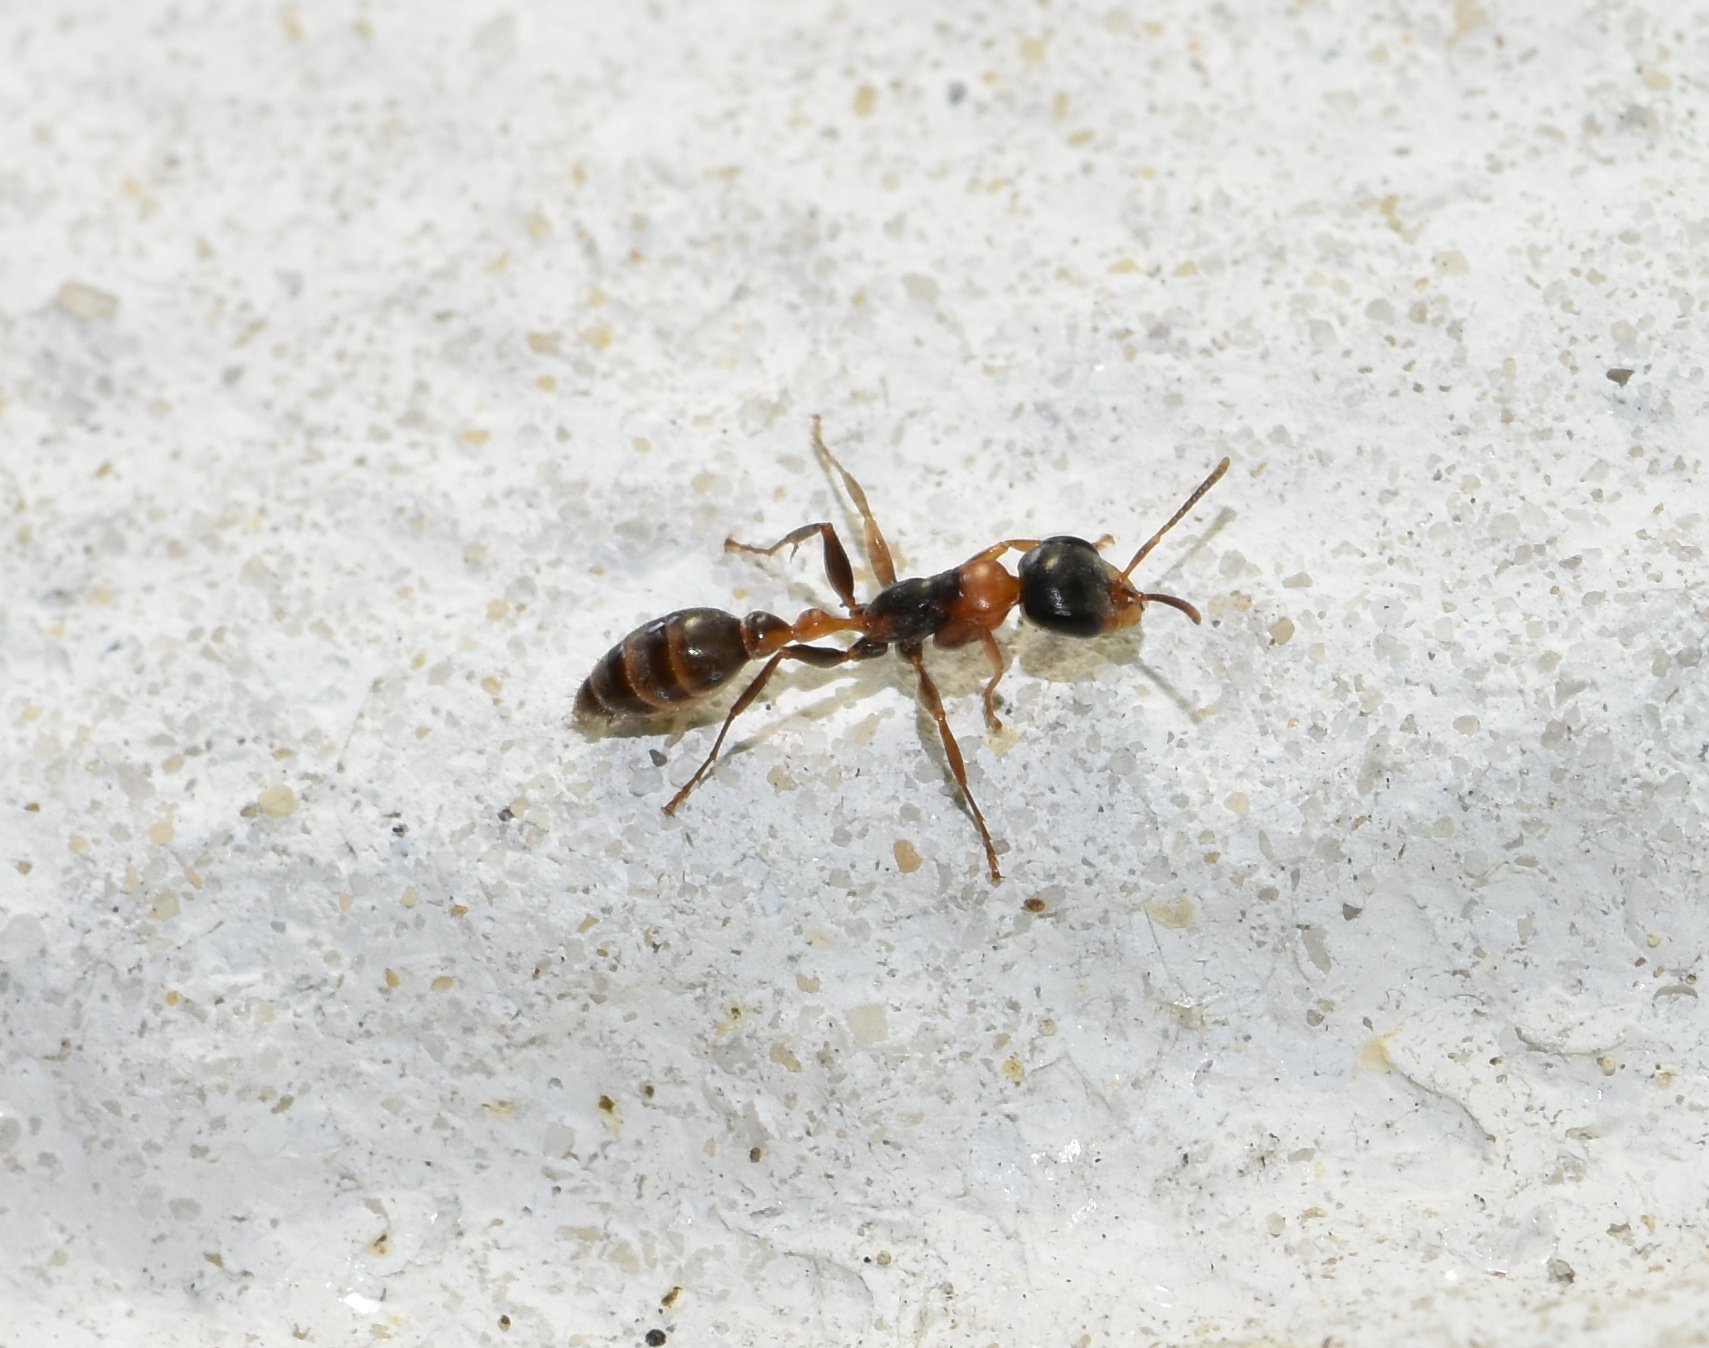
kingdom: Animalia
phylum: Arthropoda
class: Insecta
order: Hymenoptera
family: Formicidae
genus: Pseudomyrmex
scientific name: Pseudomyrmex gracilis
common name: Graceful twig ant
